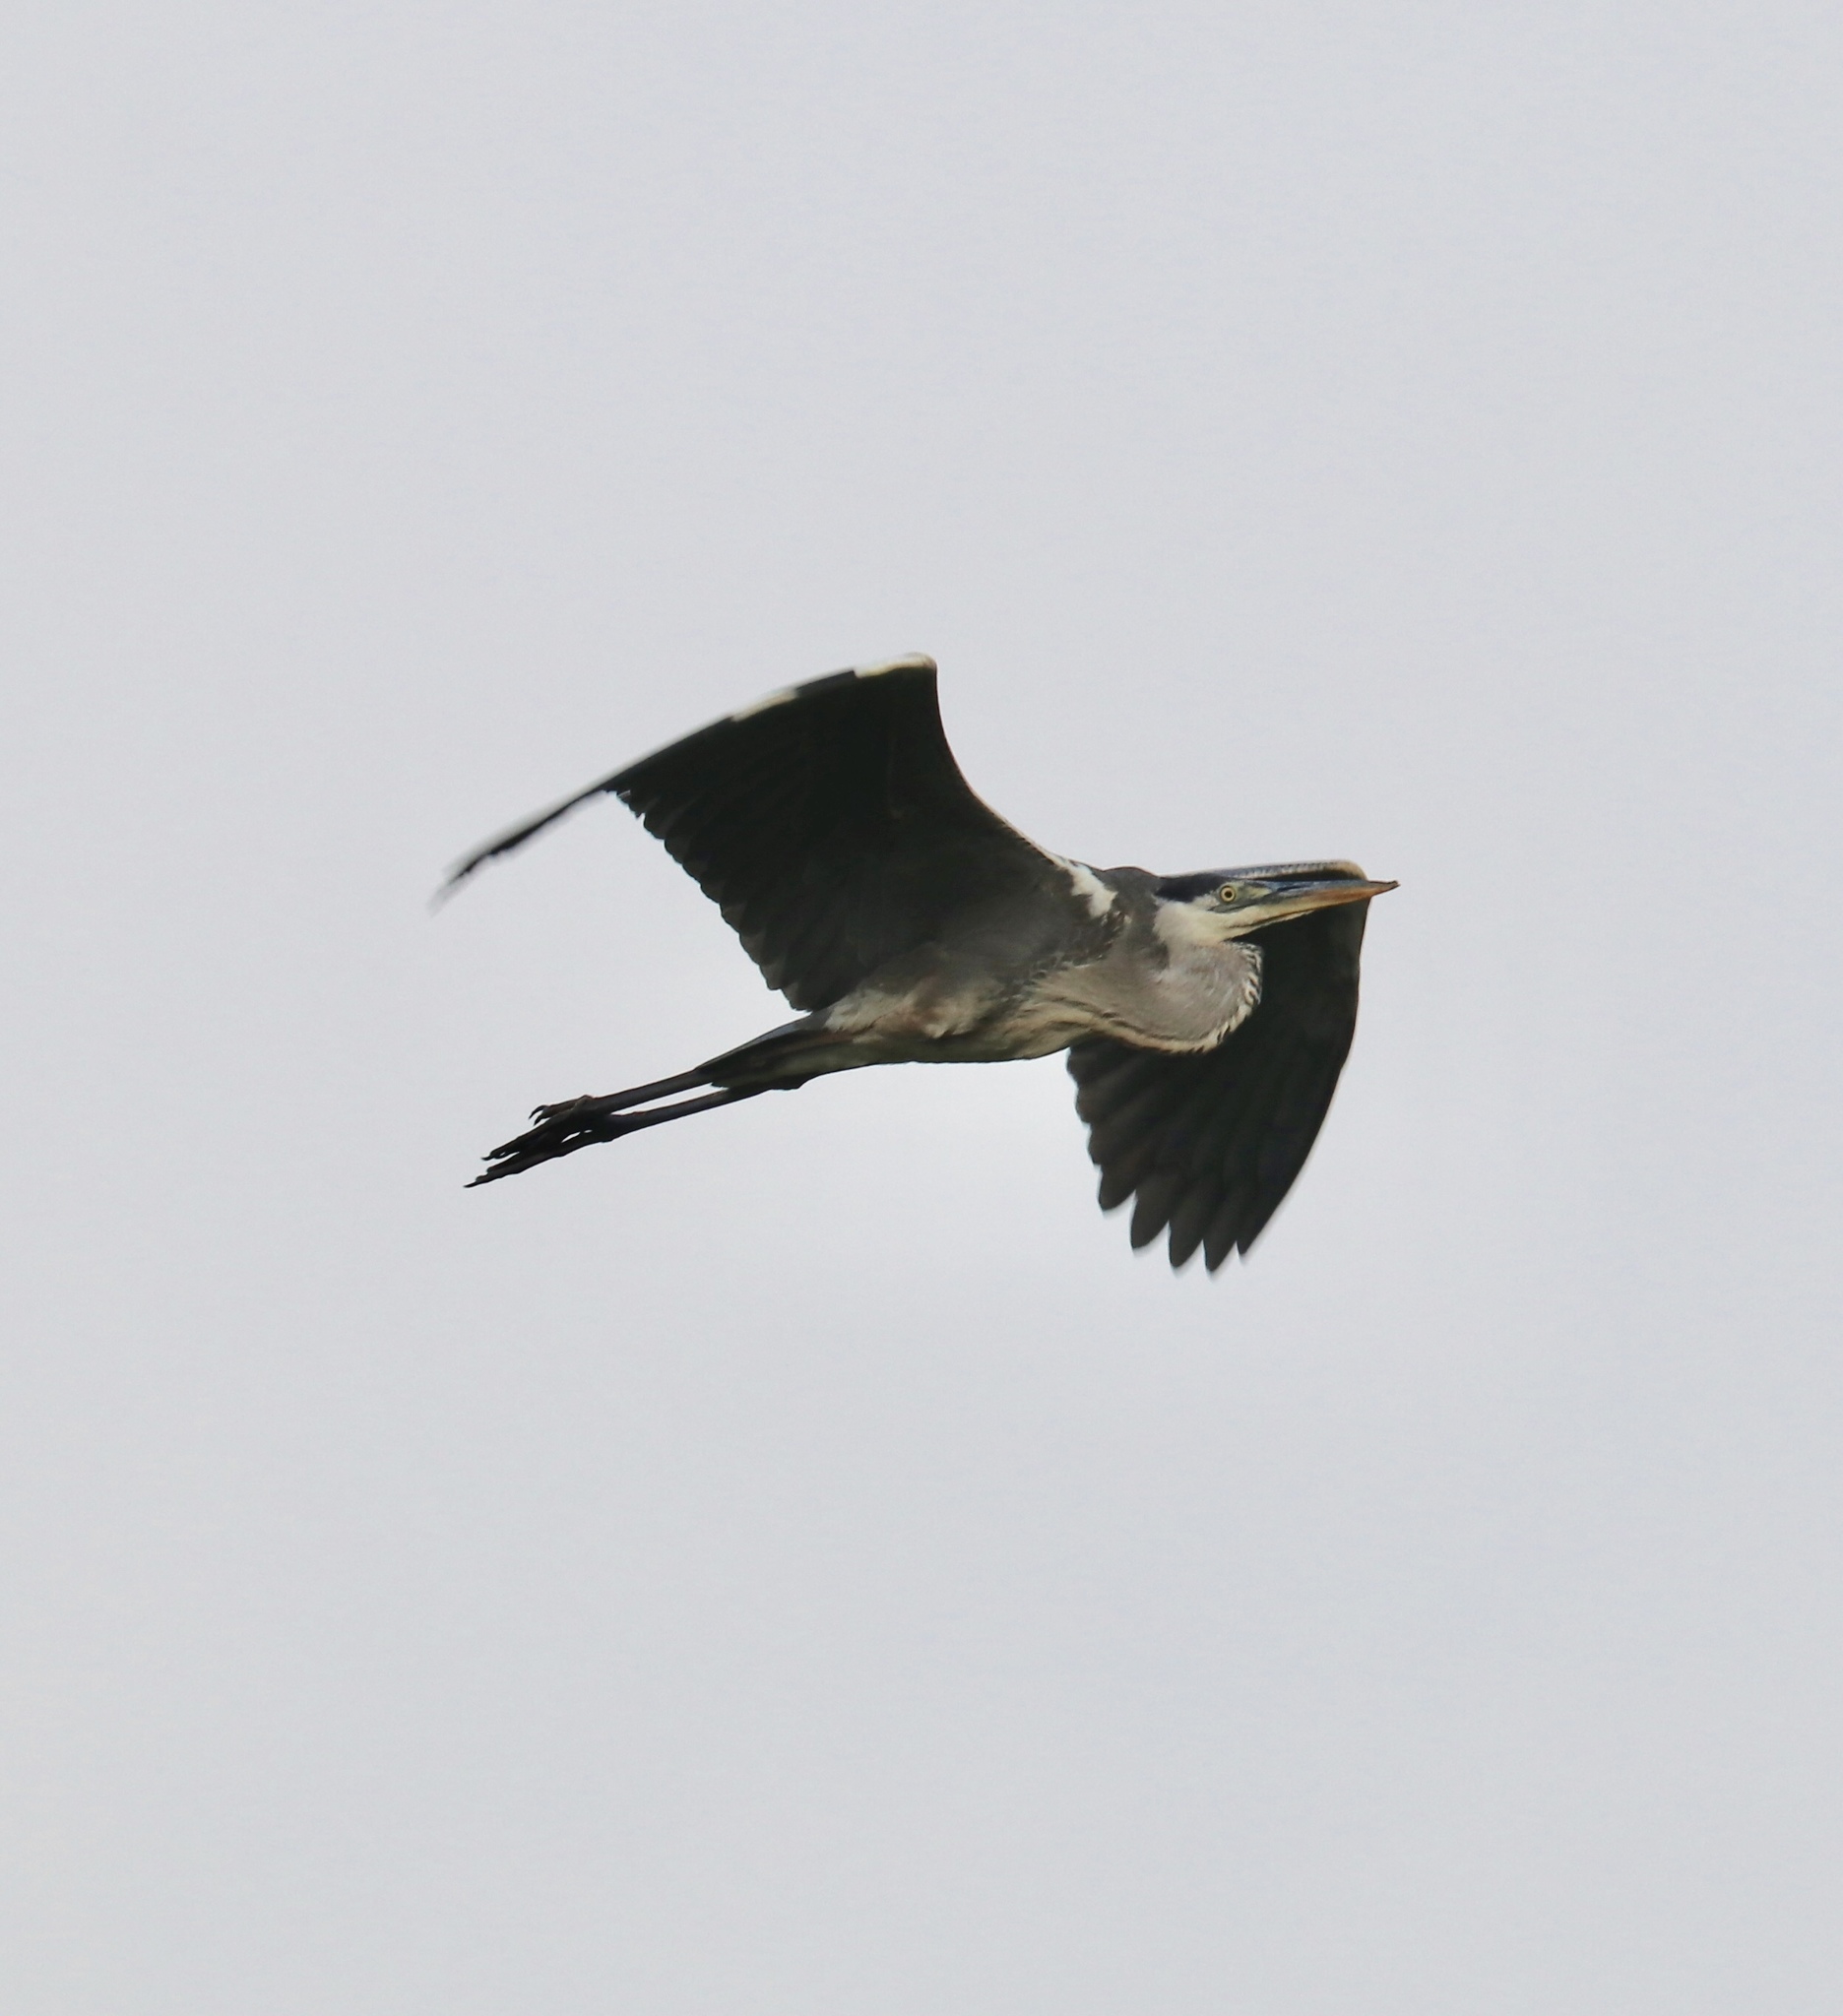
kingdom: Animalia
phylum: Chordata
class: Aves
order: Pelecaniformes
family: Ardeidae
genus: Ardea
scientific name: Ardea cocoi
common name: Cocoi heron
